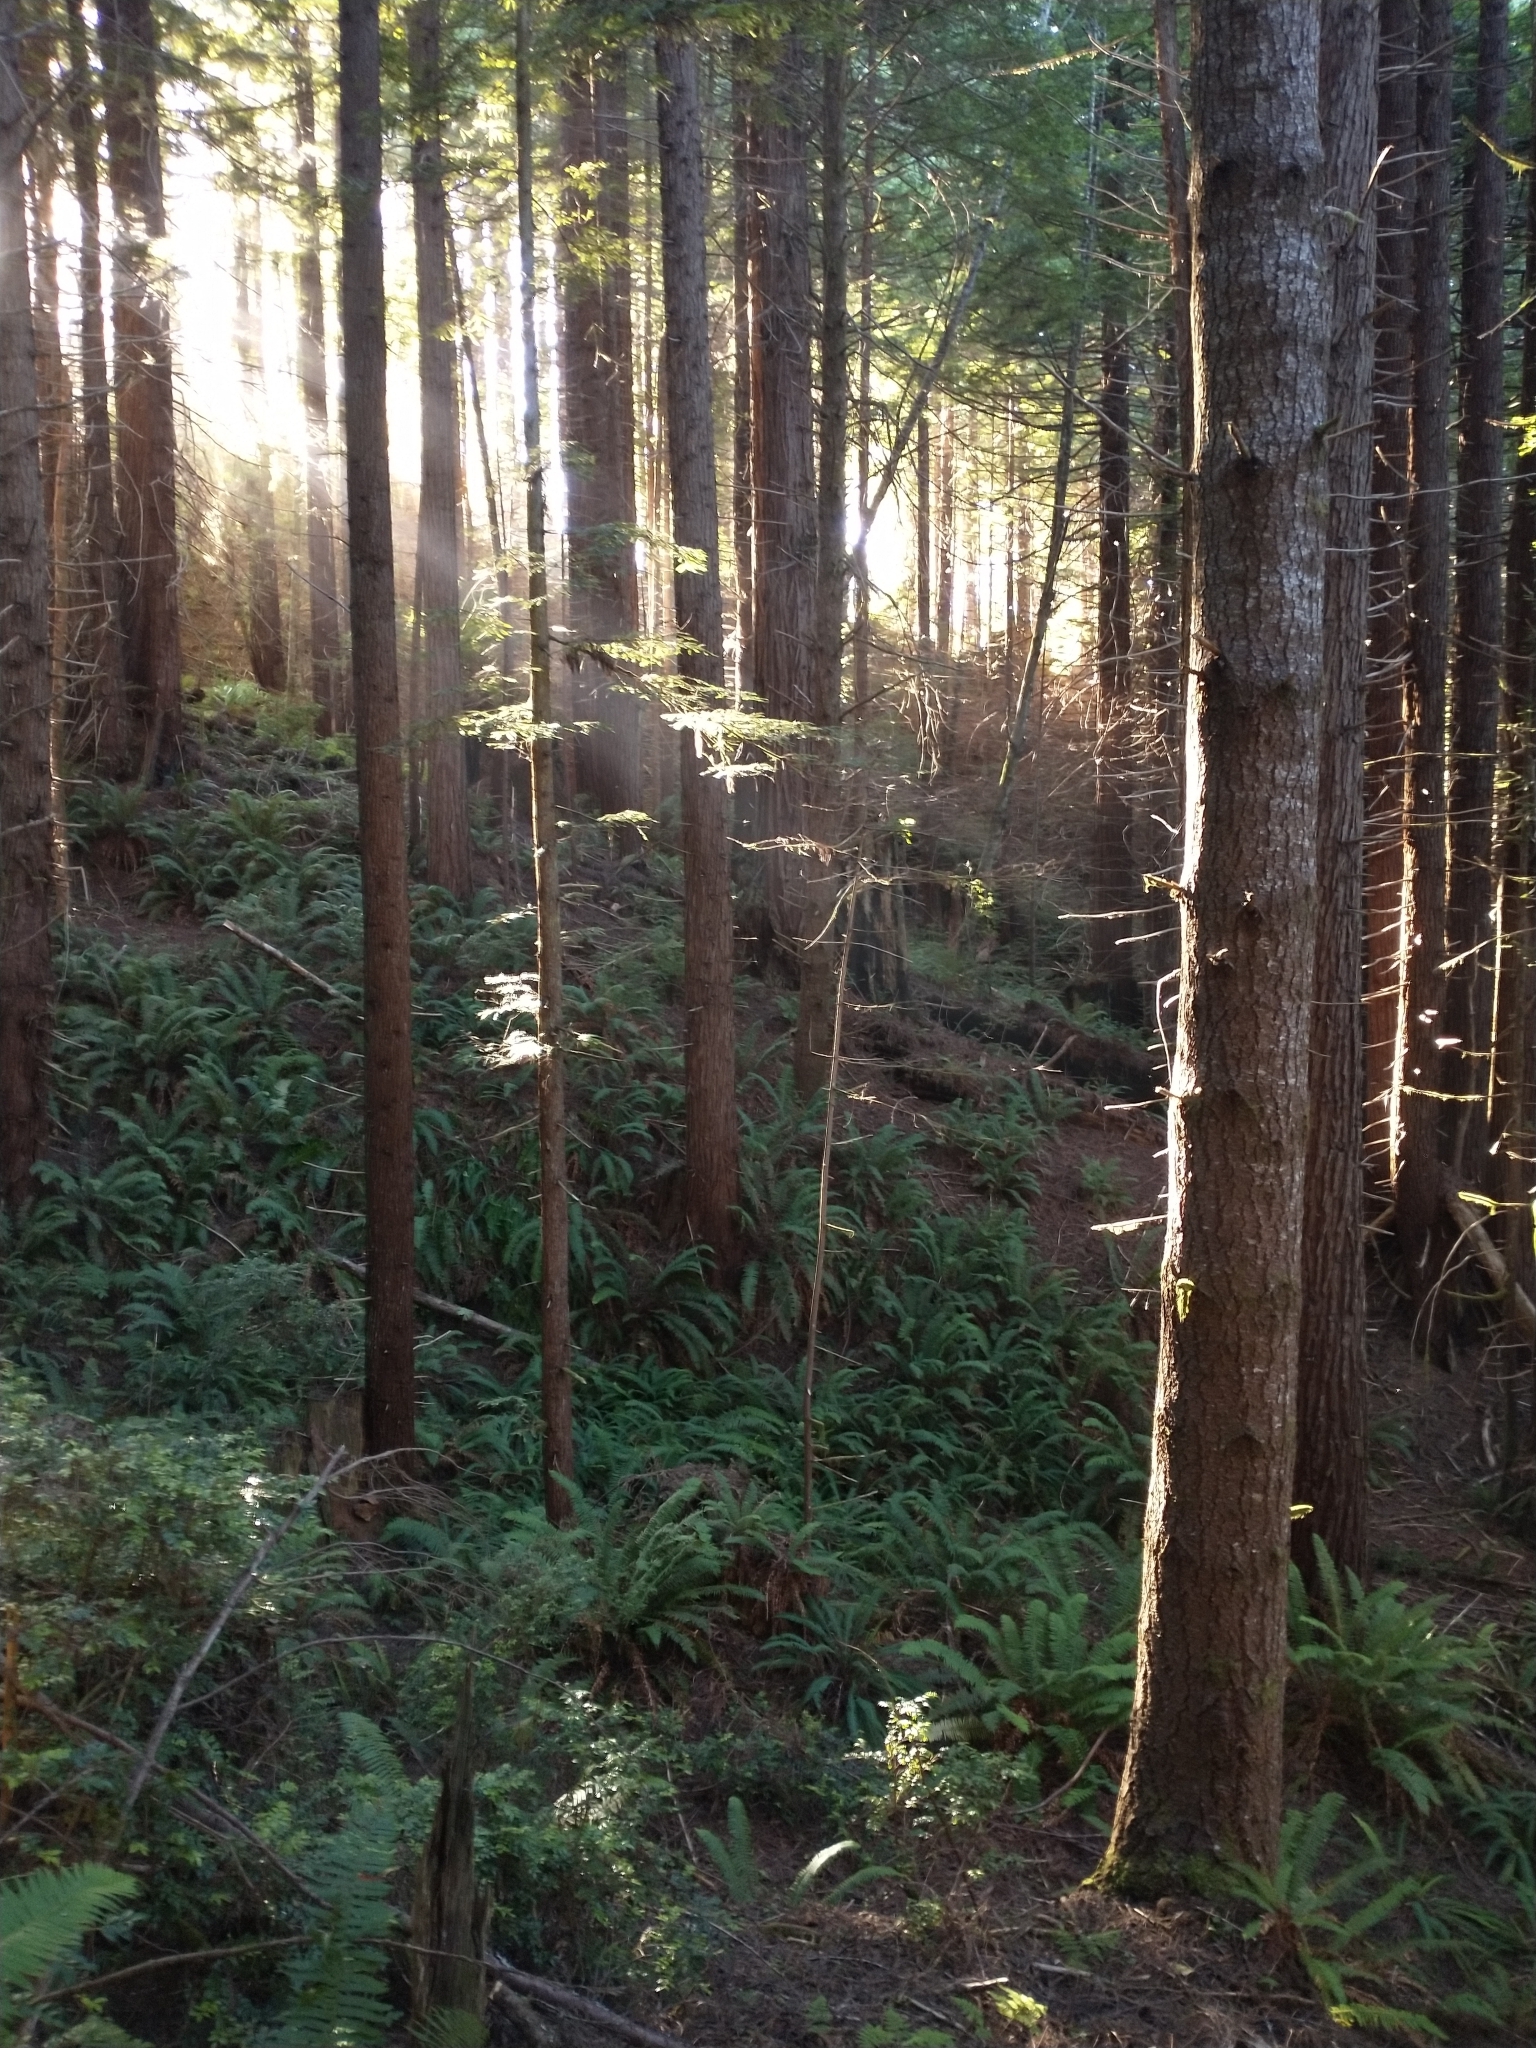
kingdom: Plantae
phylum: Tracheophyta
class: Polypodiopsida
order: Polypodiales
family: Dryopteridaceae
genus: Polystichum
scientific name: Polystichum munitum
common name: Western sword-fern
